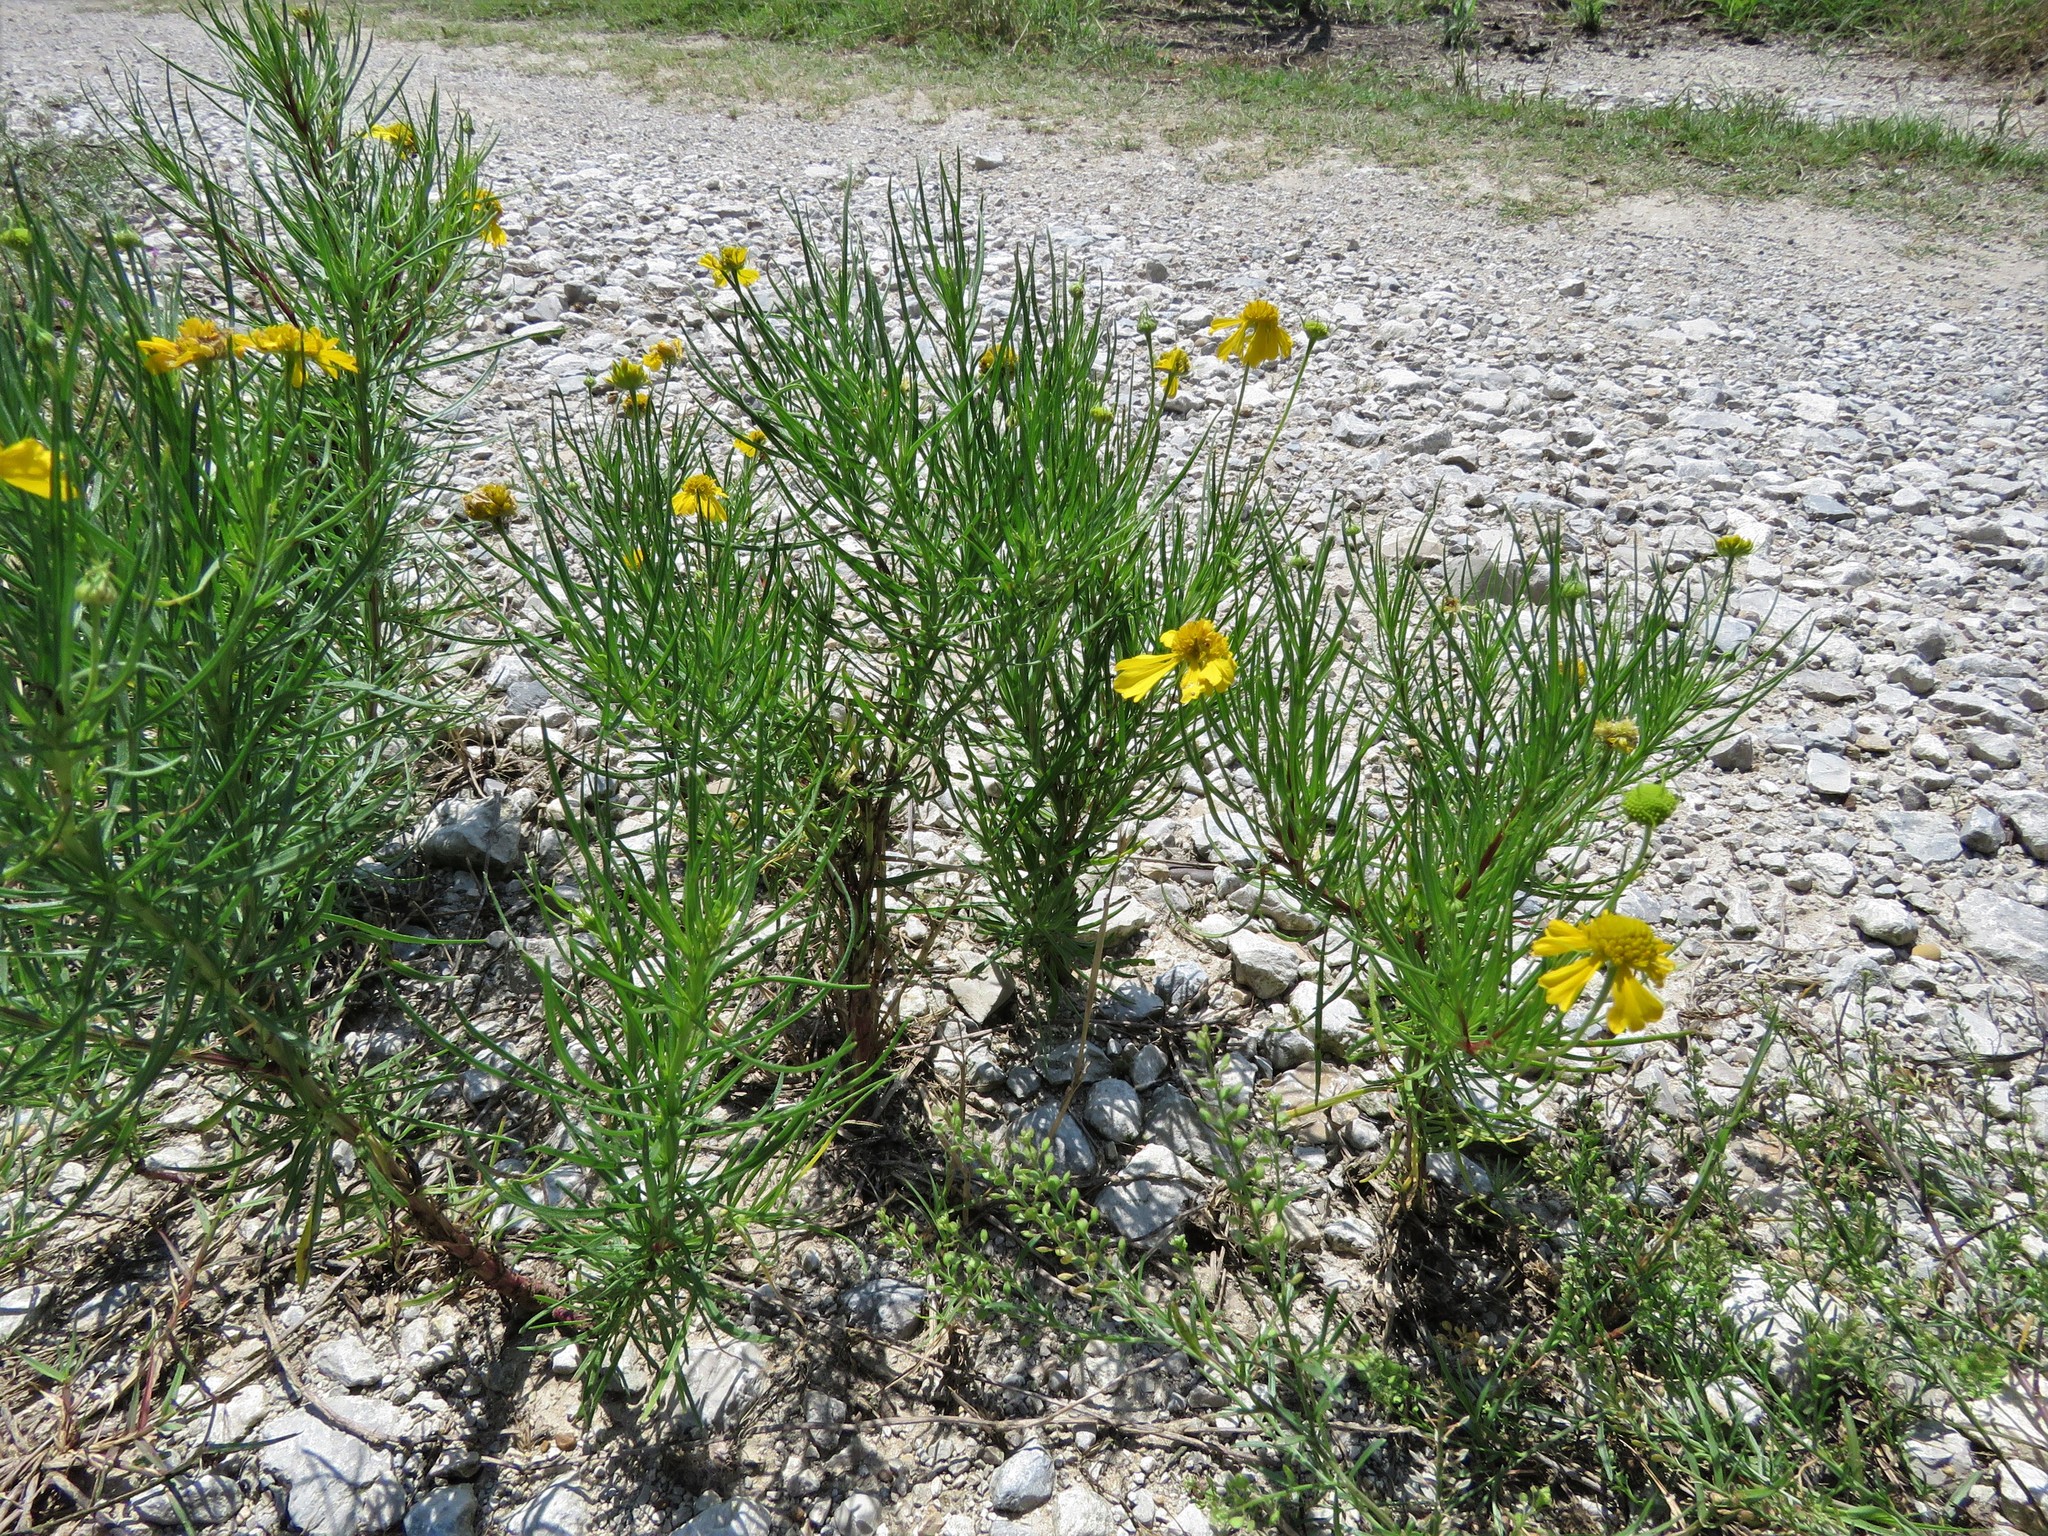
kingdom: Plantae
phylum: Tracheophyta
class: Magnoliopsida
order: Asterales
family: Asteraceae
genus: Helenium
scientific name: Helenium amarum
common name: Bitter sneezeweed
